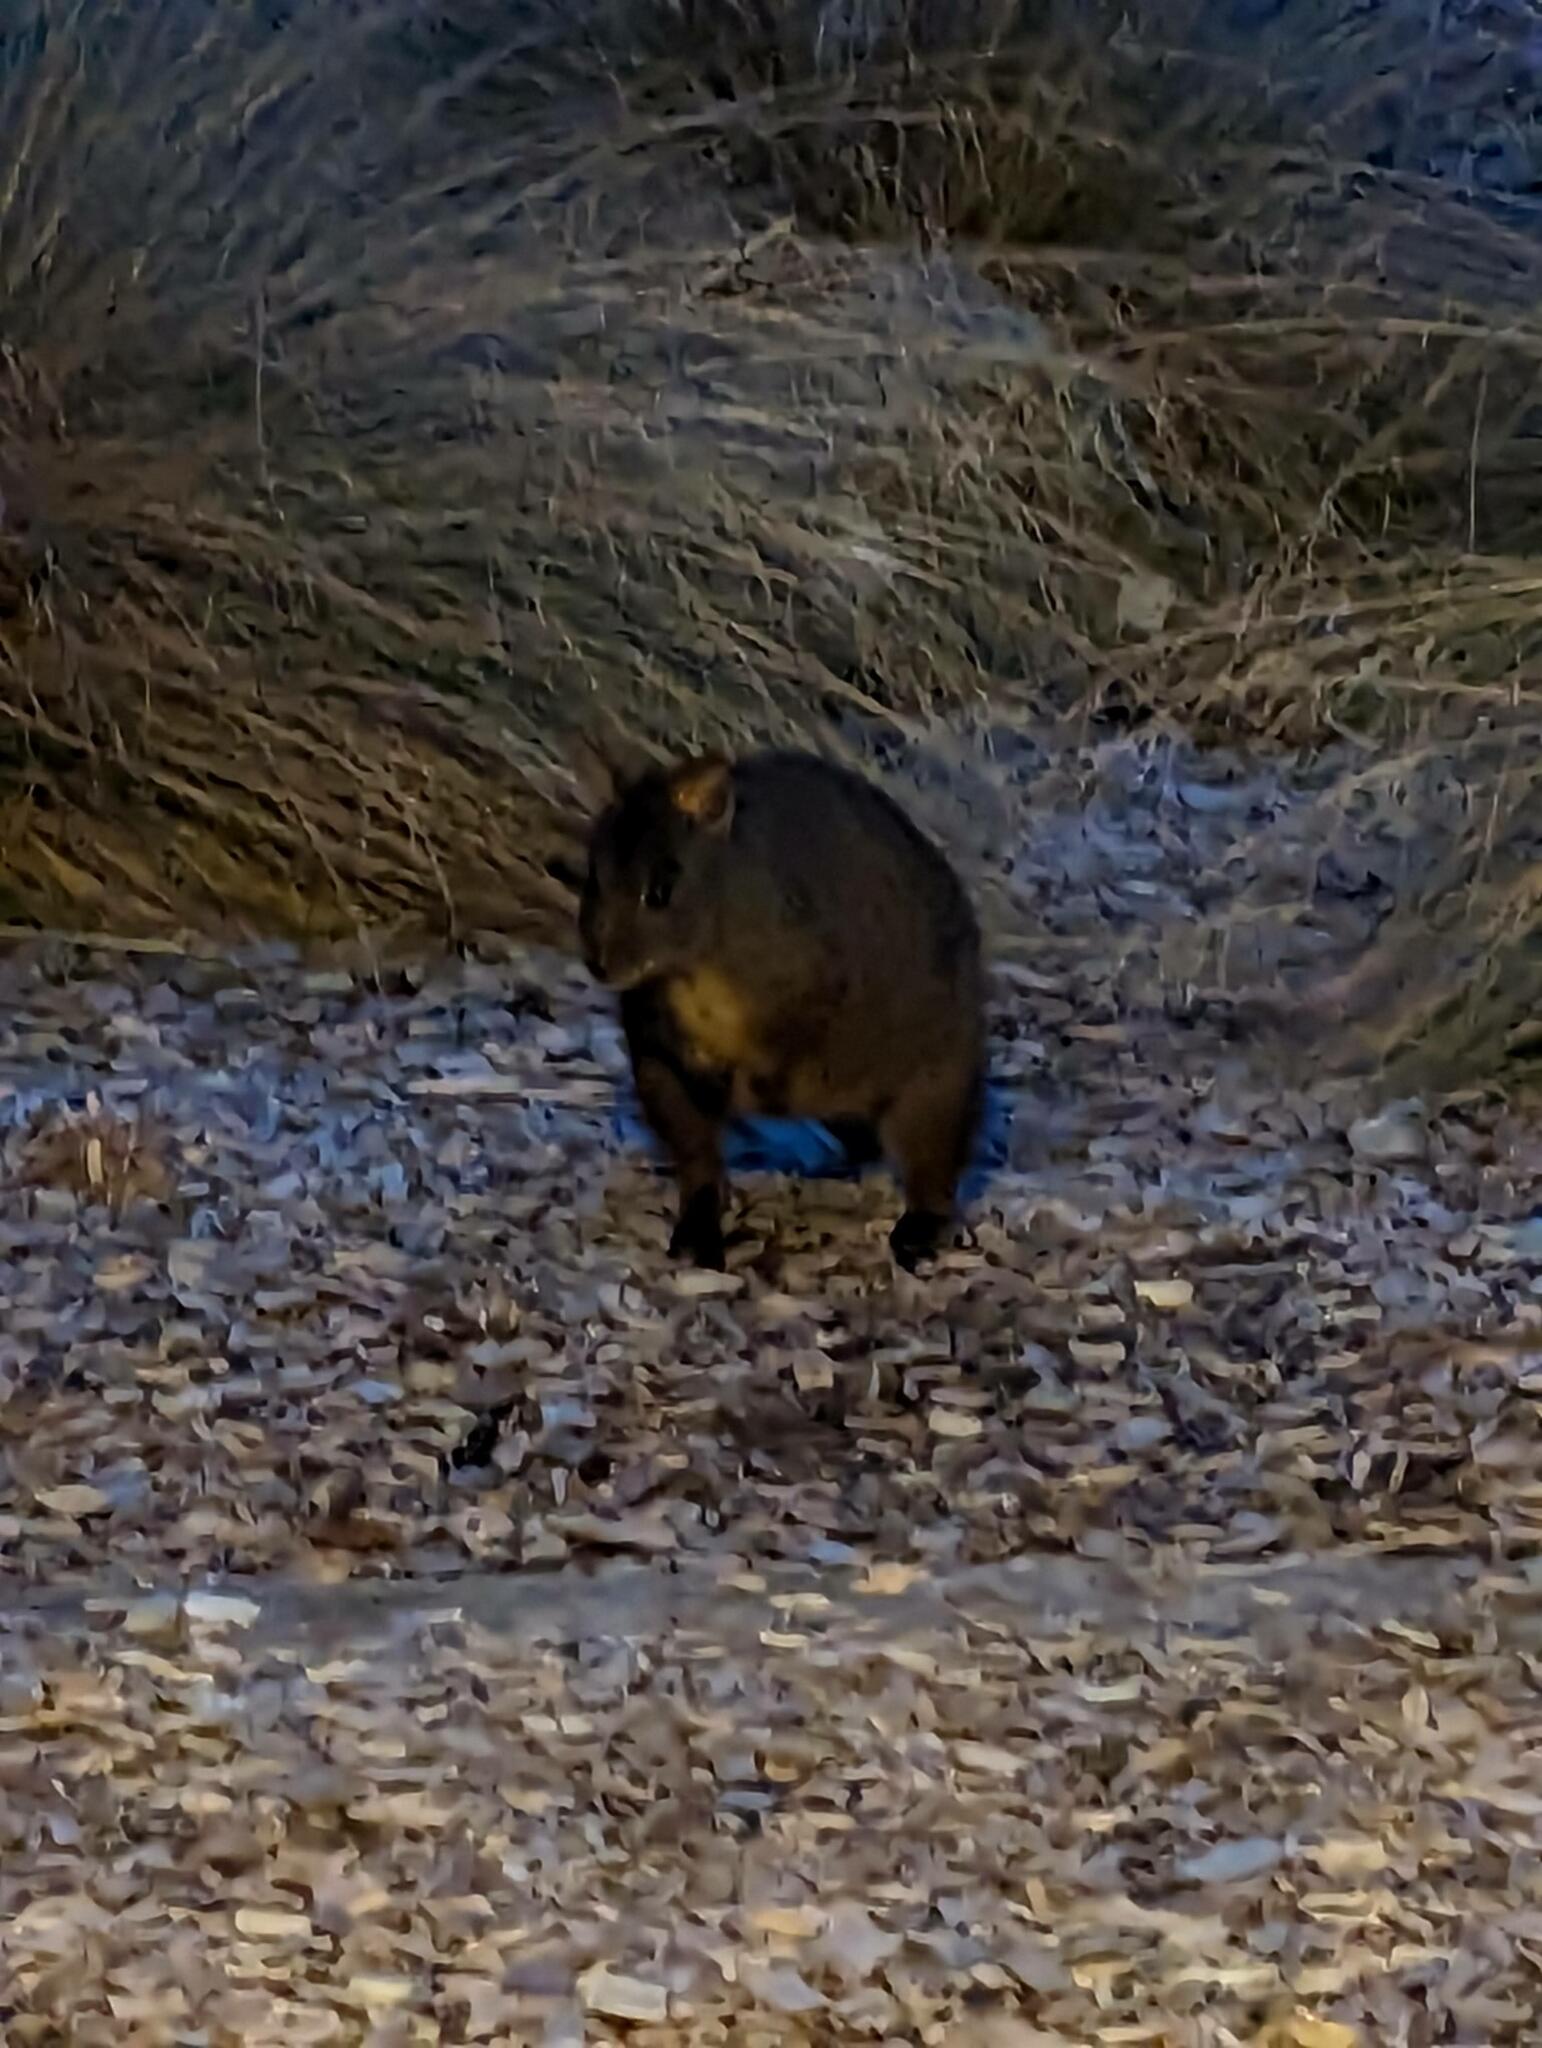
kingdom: Animalia
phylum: Chordata
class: Mammalia
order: Diprotodontia
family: Macropodidae
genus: Thylogale
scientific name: Thylogale billardierii
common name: Tasmanian pademelon
